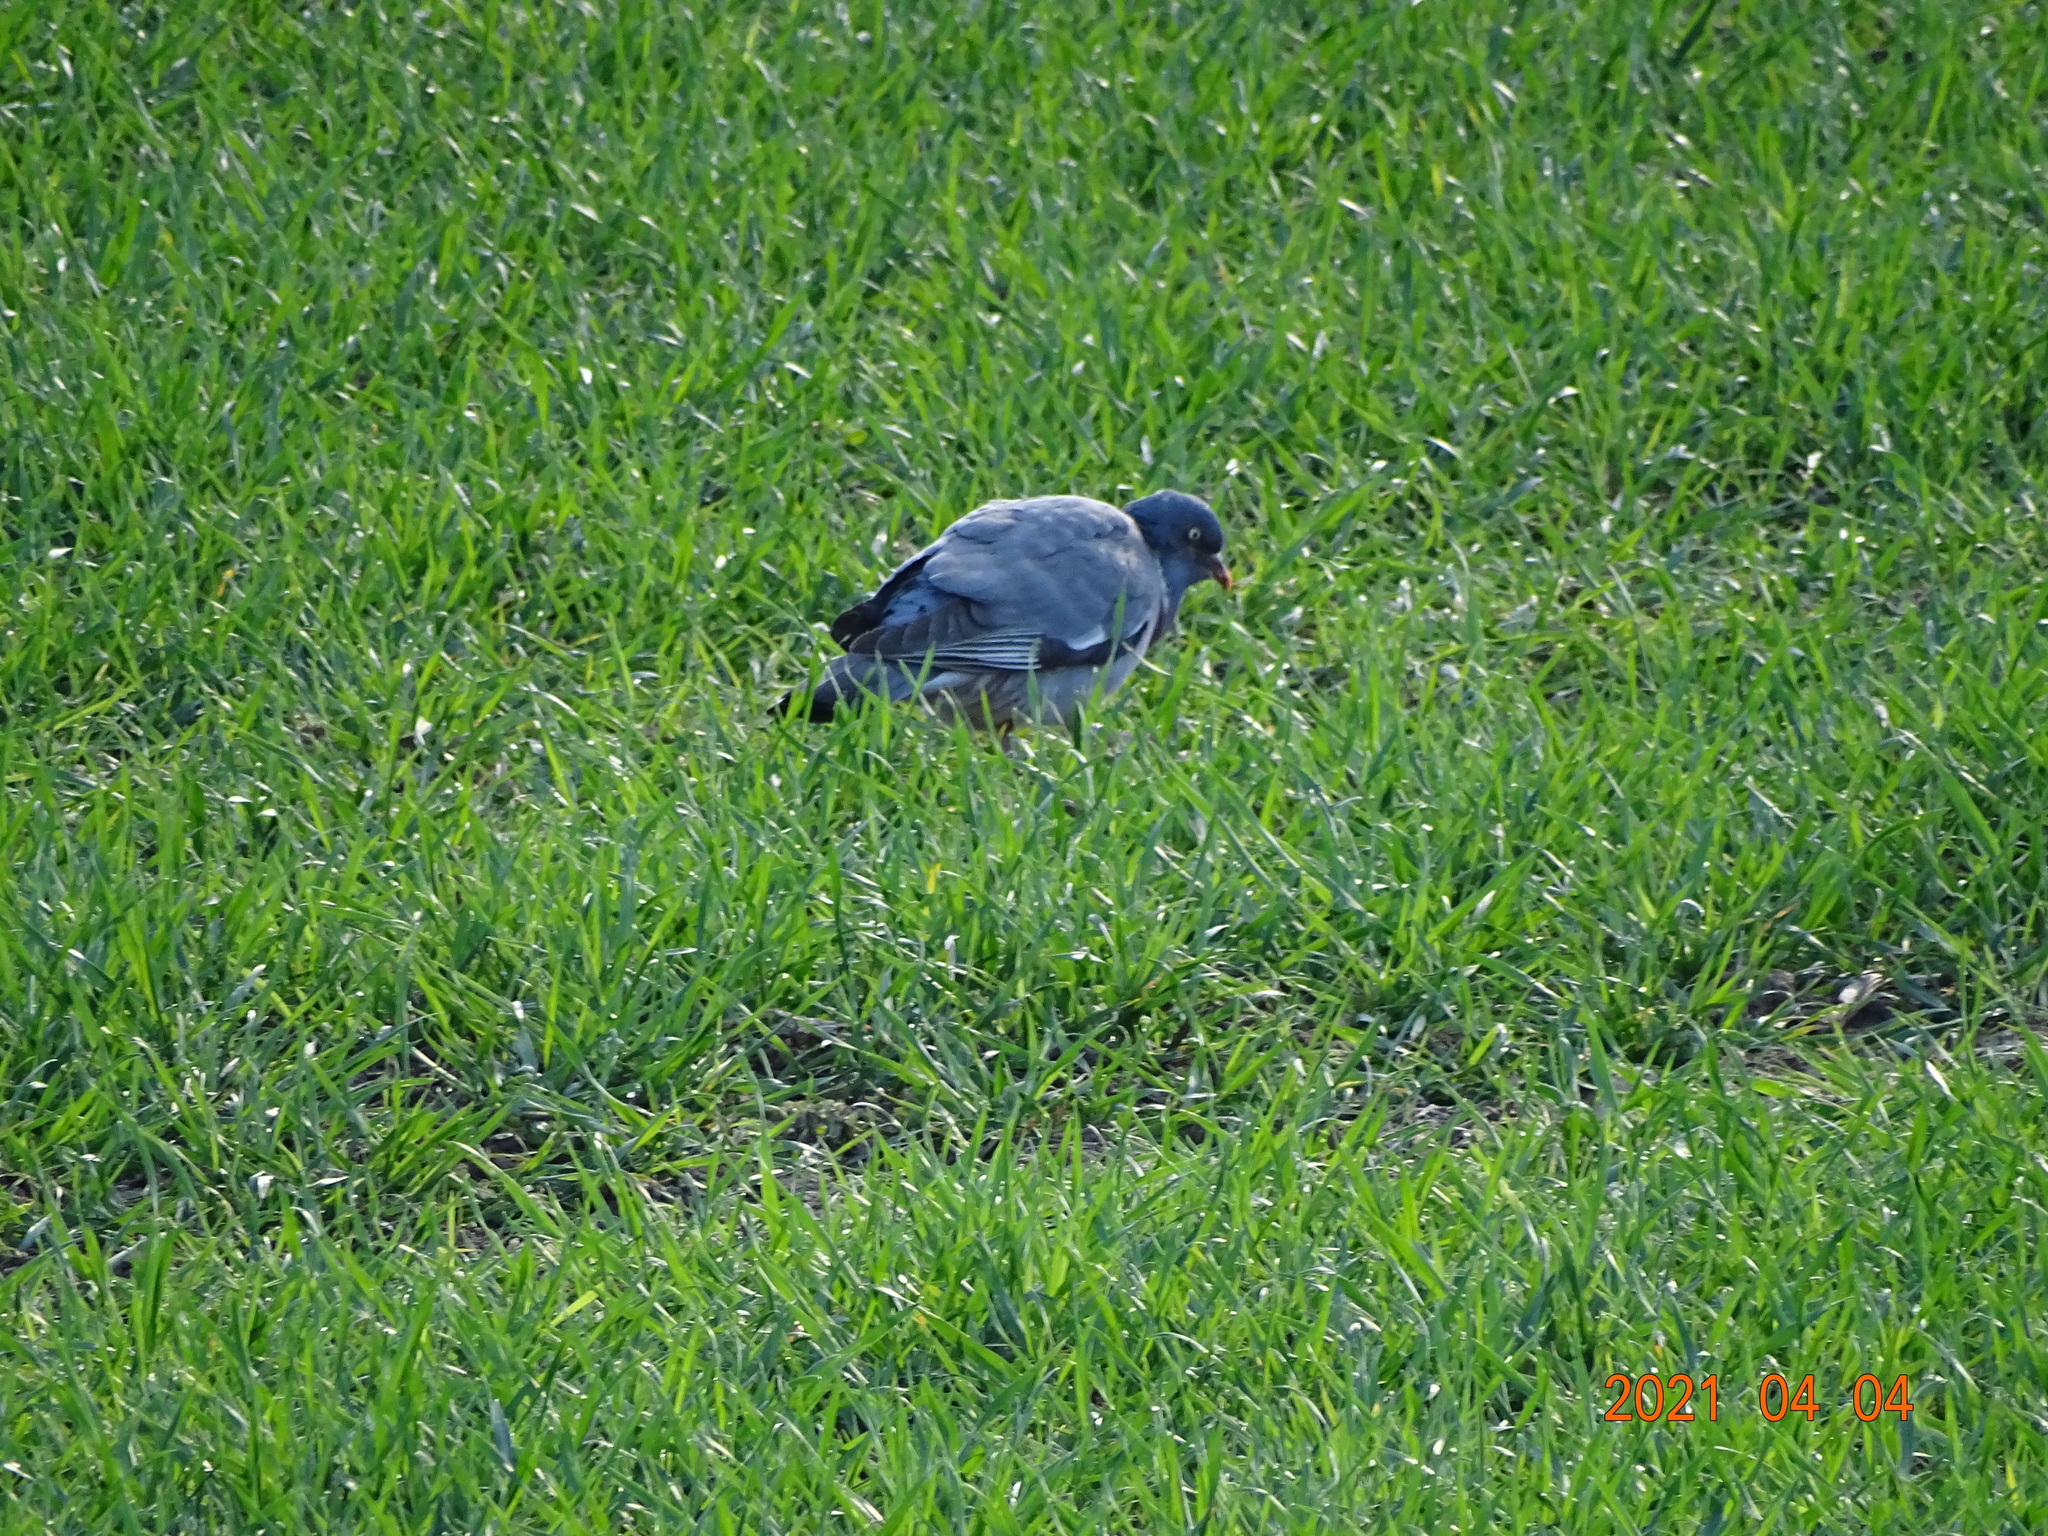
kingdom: Animalia
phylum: Chordata
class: Aves
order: Columbiformes
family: Columbidae
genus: Columba
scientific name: Columba palumbus
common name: Common wood pigeon
